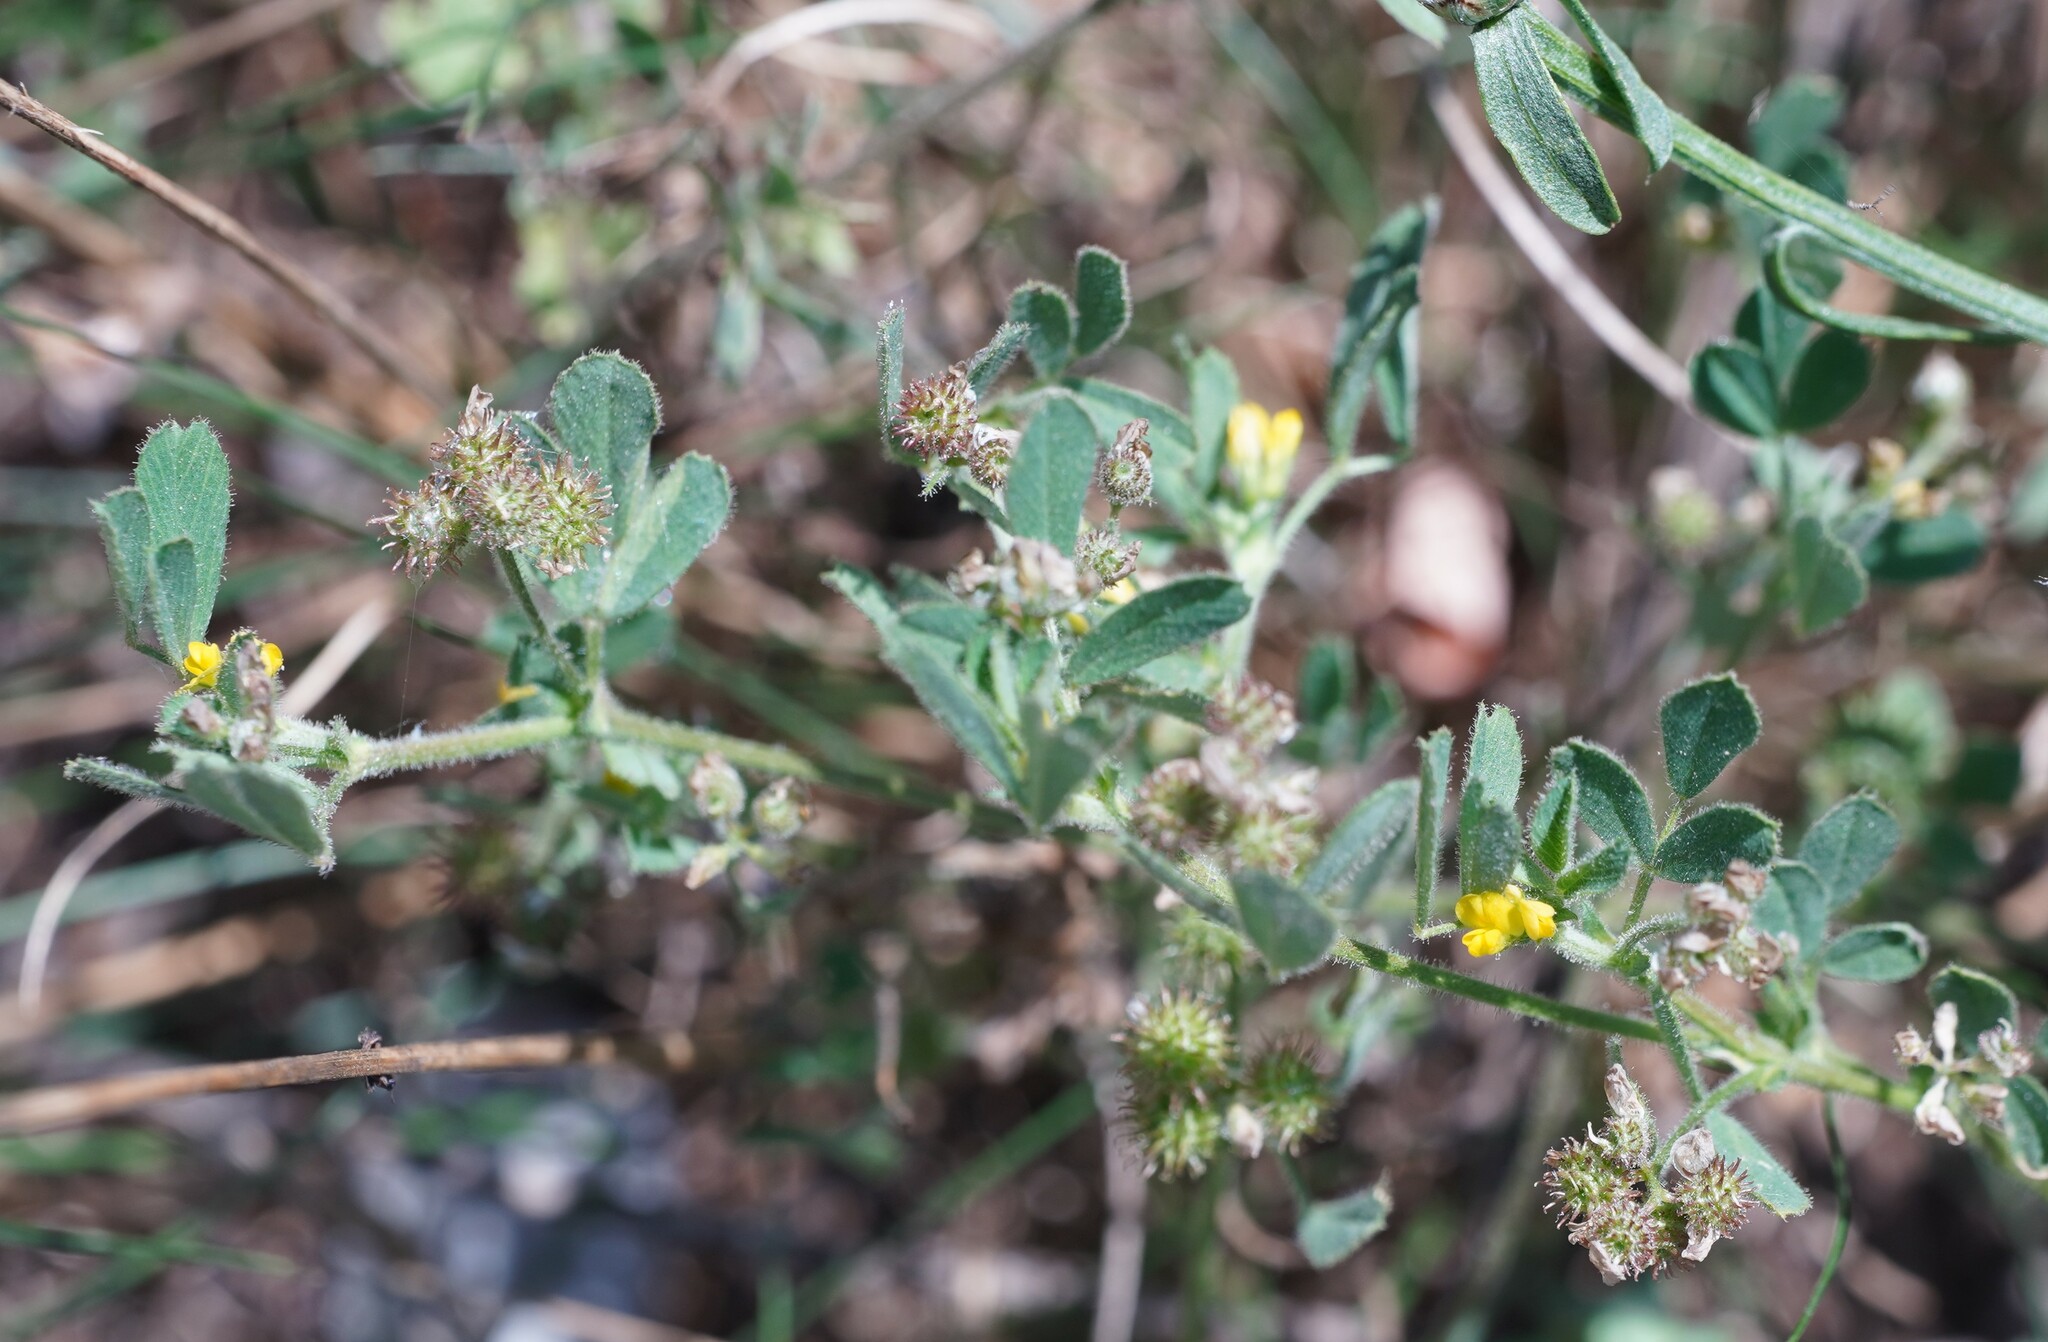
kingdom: Plantae
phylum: Tracheophyta
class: Magnoliopsida
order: Fabales
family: Fabaceae
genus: Medicago
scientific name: Medicago minima
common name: Little bur-clover
